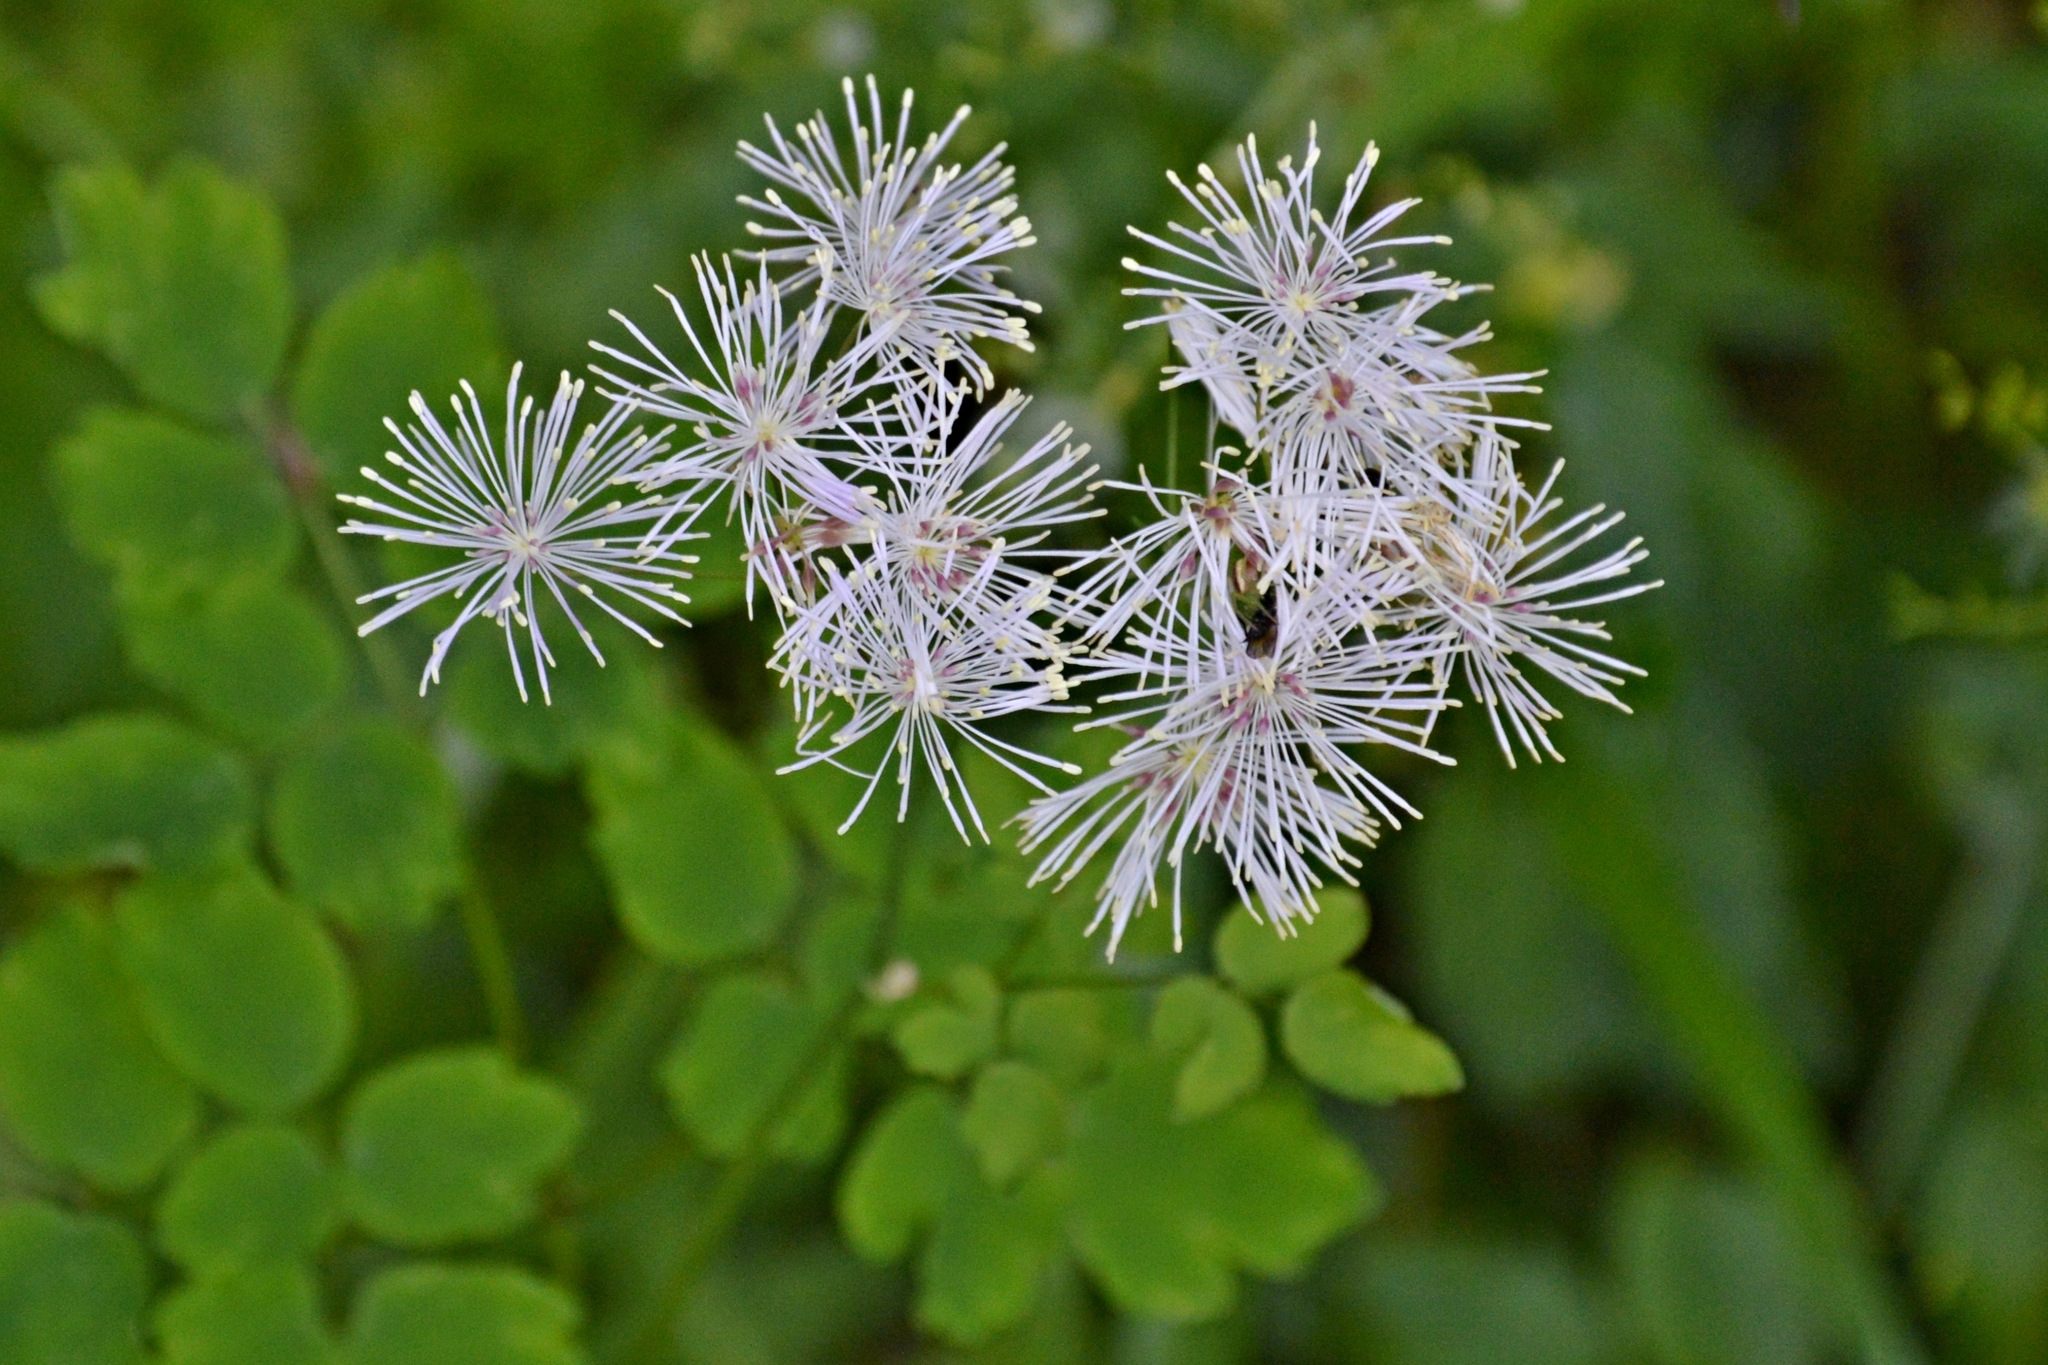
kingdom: Plantae
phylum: Tracheophyta
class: Magnoliopsida
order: Ranunculales
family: Ranunculaceae
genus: Thalictrum
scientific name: Thalictrum aquilegiifolium
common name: French meadow-rue
